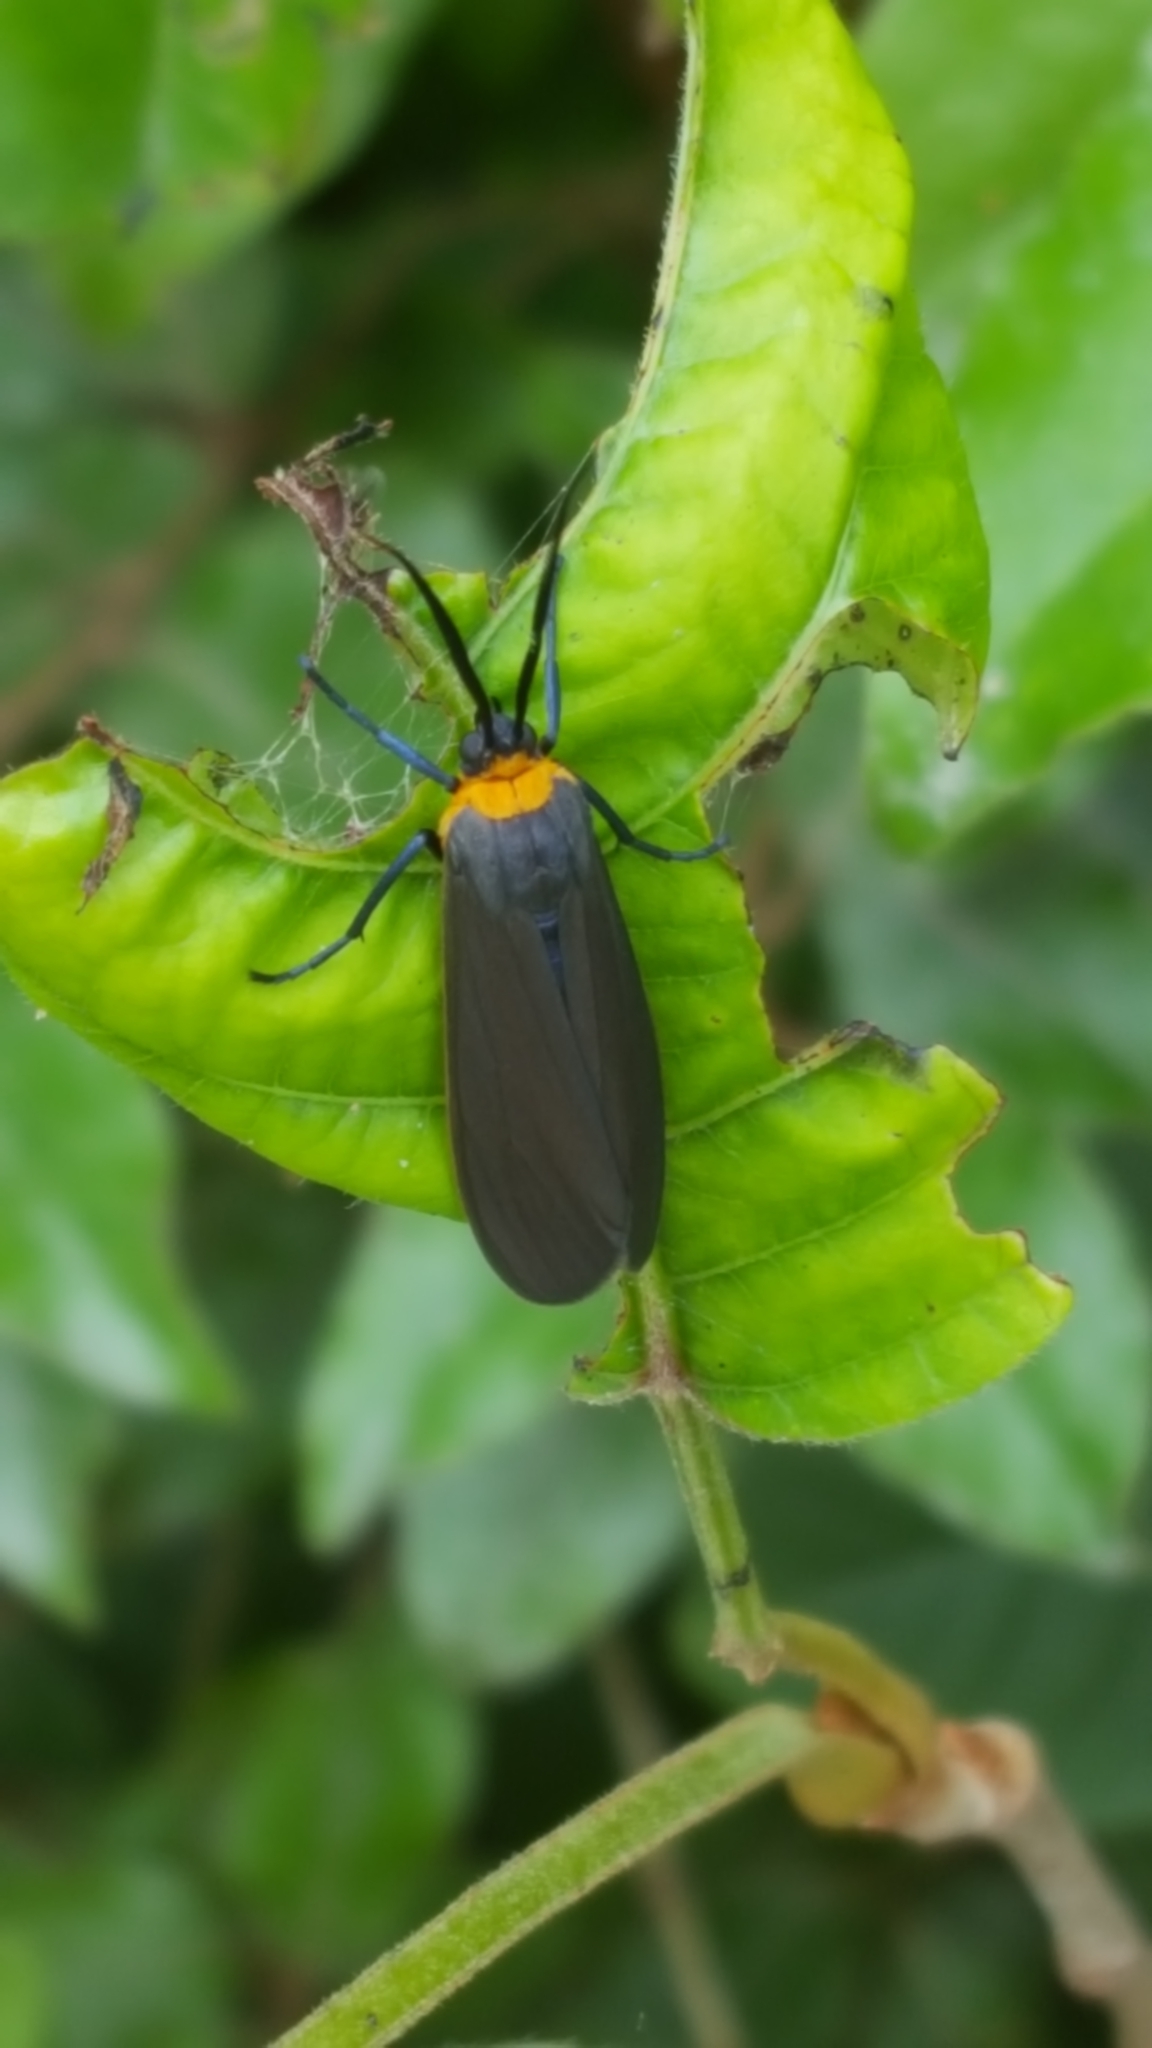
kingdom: Animalia
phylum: Arthropoda
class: Insecta
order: Lepidoptera
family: Erebidae
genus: Cisseps
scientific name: Cisseps fulvicollis
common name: Yellow-collared scape moth
